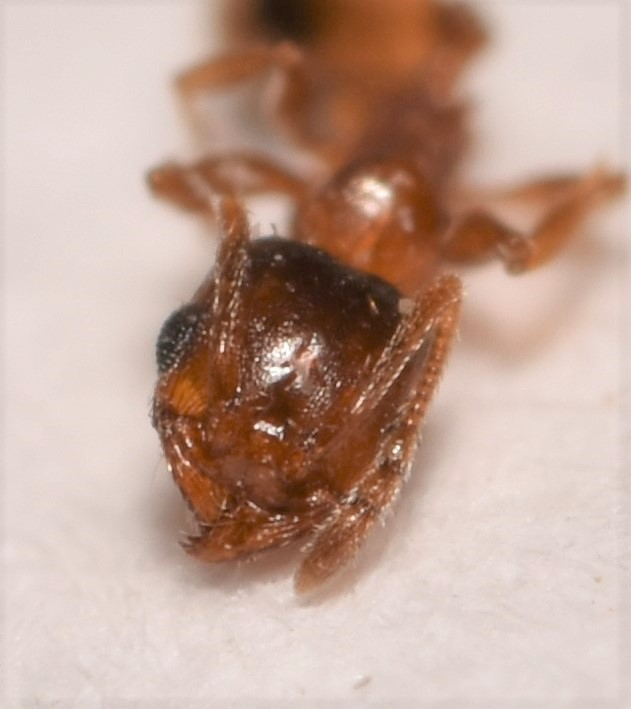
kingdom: Animalia
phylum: Arthropoda
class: Insecta
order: Hymenoptera
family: Formicidae
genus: Pheidole
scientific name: Pheidole soritis
